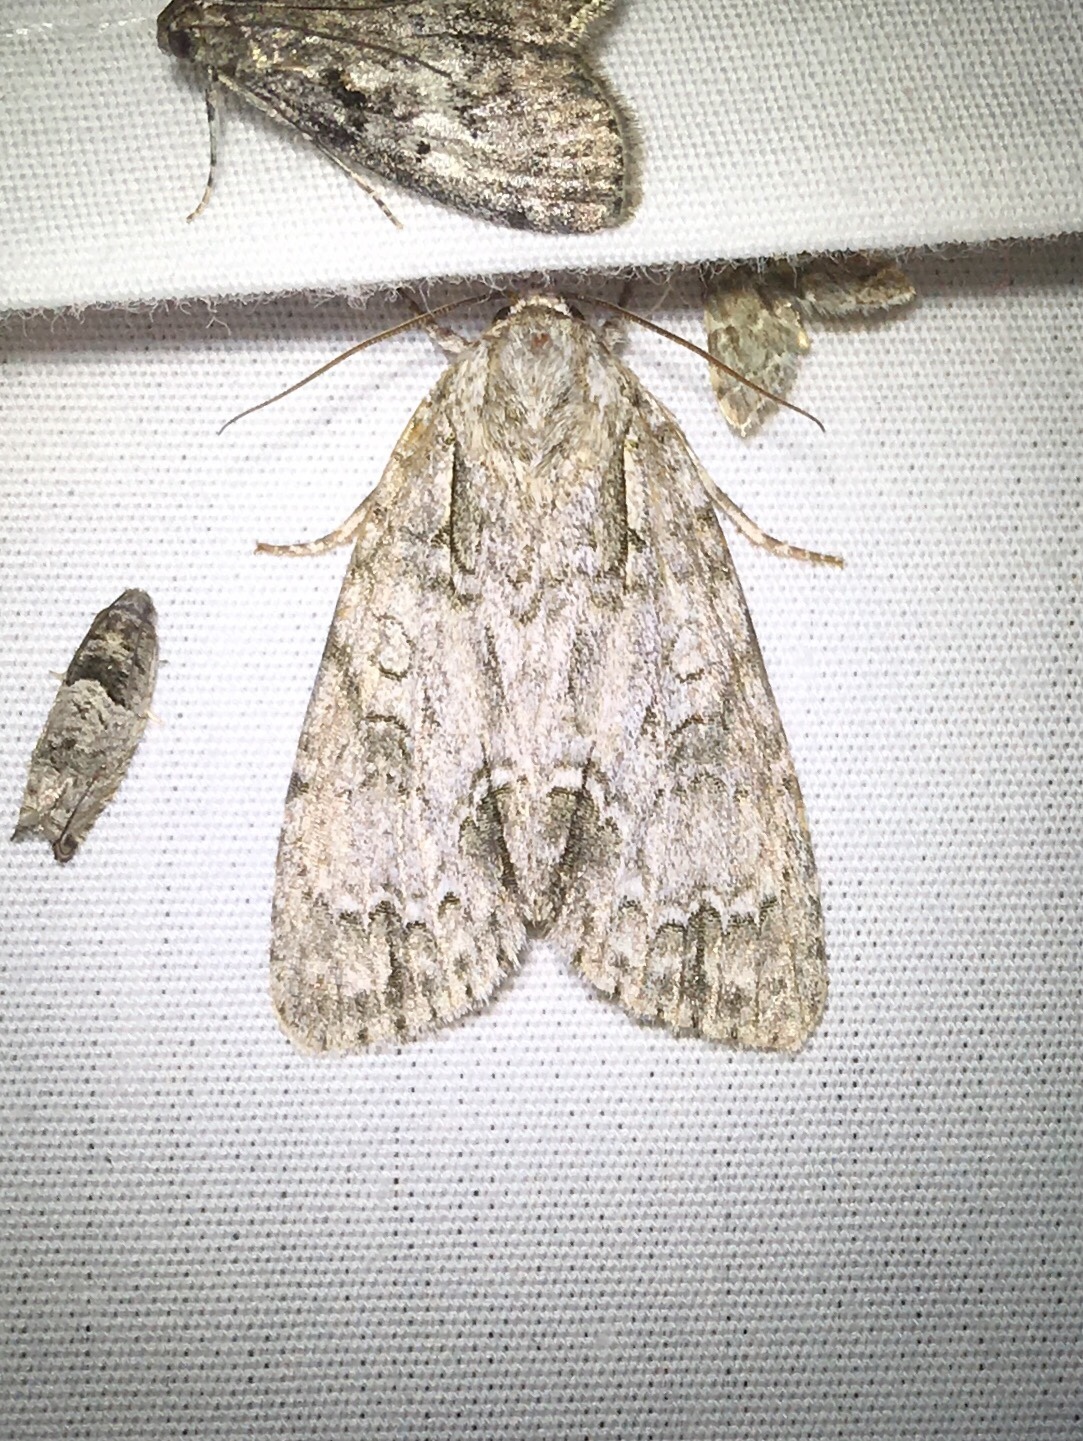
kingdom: Animalia
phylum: Arthropoda
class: Insecta
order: Lepidoptera
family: Noctuidae
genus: Acronicta
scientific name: Acronicta spinigera
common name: Nondescript dagger
